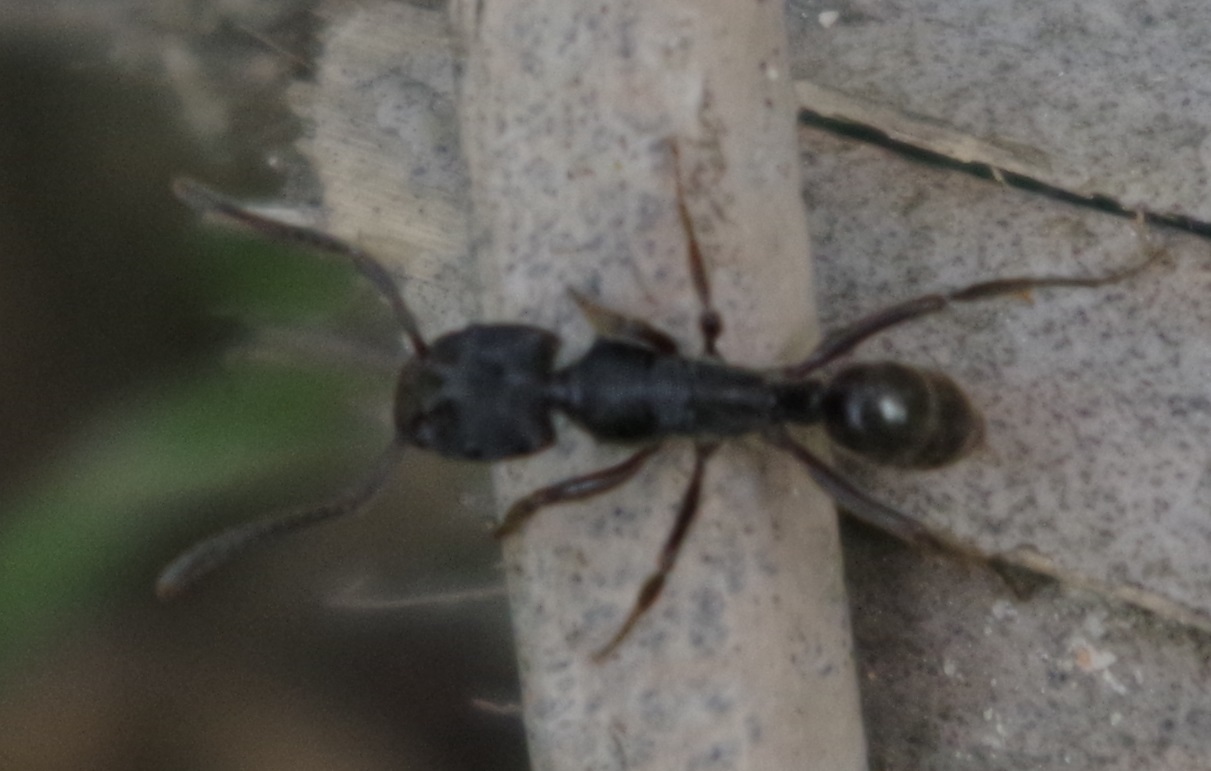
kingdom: Animalia
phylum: Arthropoda
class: Insecta
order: Hymenoptera
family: Formicidae
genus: Odontoponera
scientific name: Odontoponera denticulata
